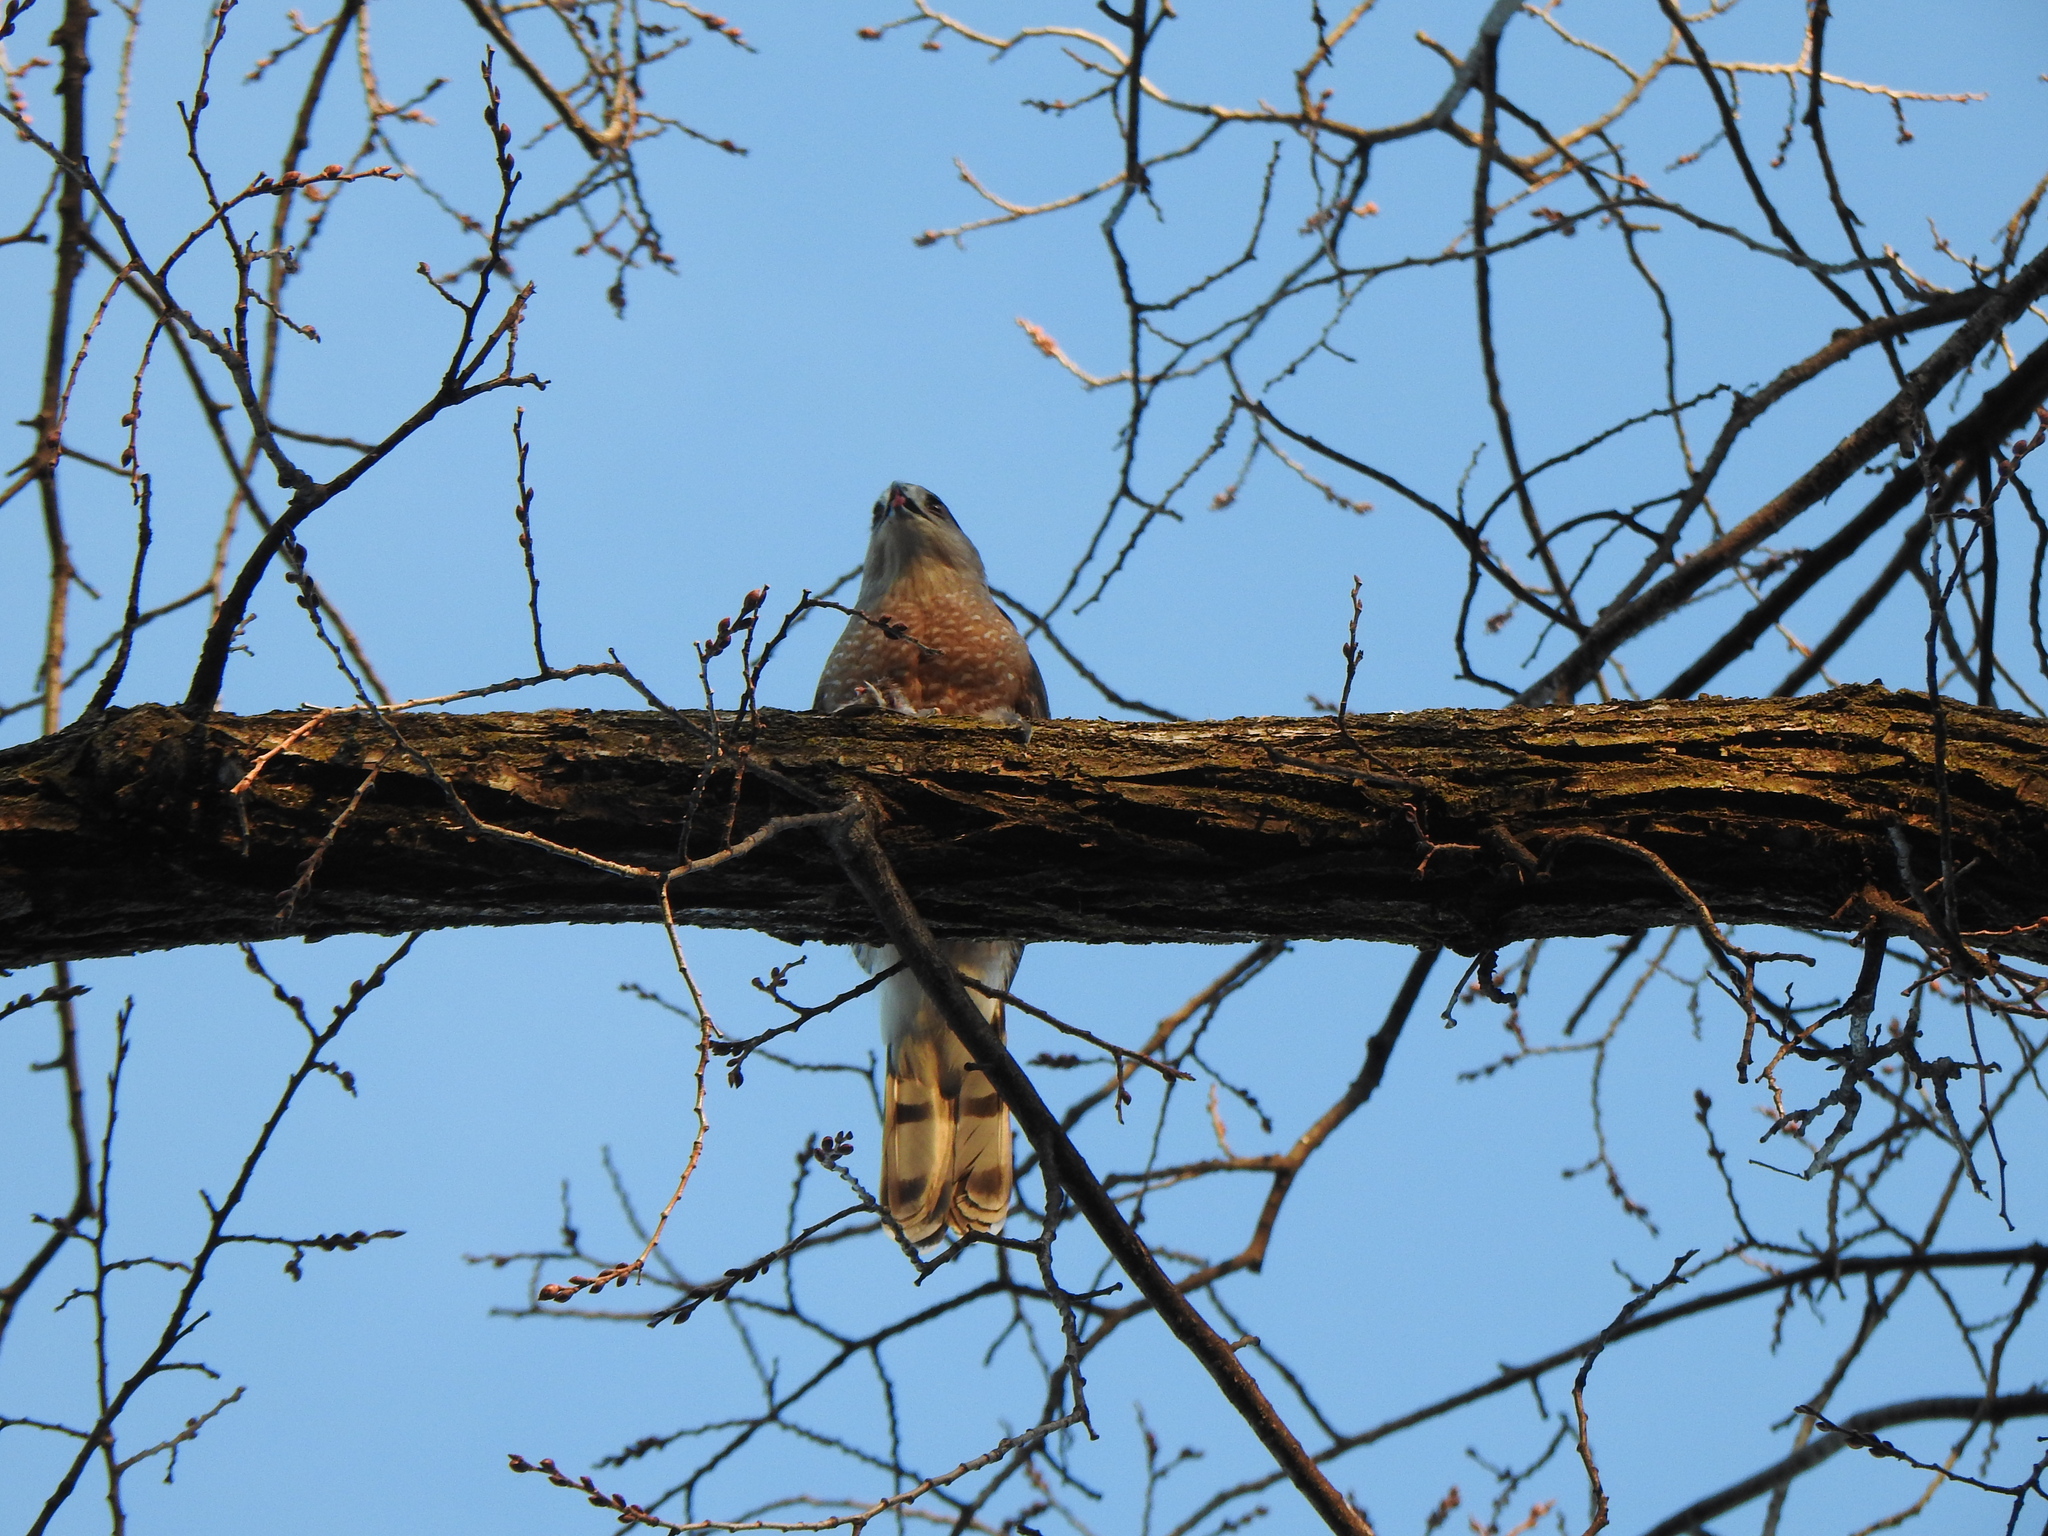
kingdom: Animalia
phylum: Chordata
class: Aves
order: Accipitriformes
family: Accipitridae
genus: Accipiter
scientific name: Accipiter cooperii
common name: Cooper's hawk
